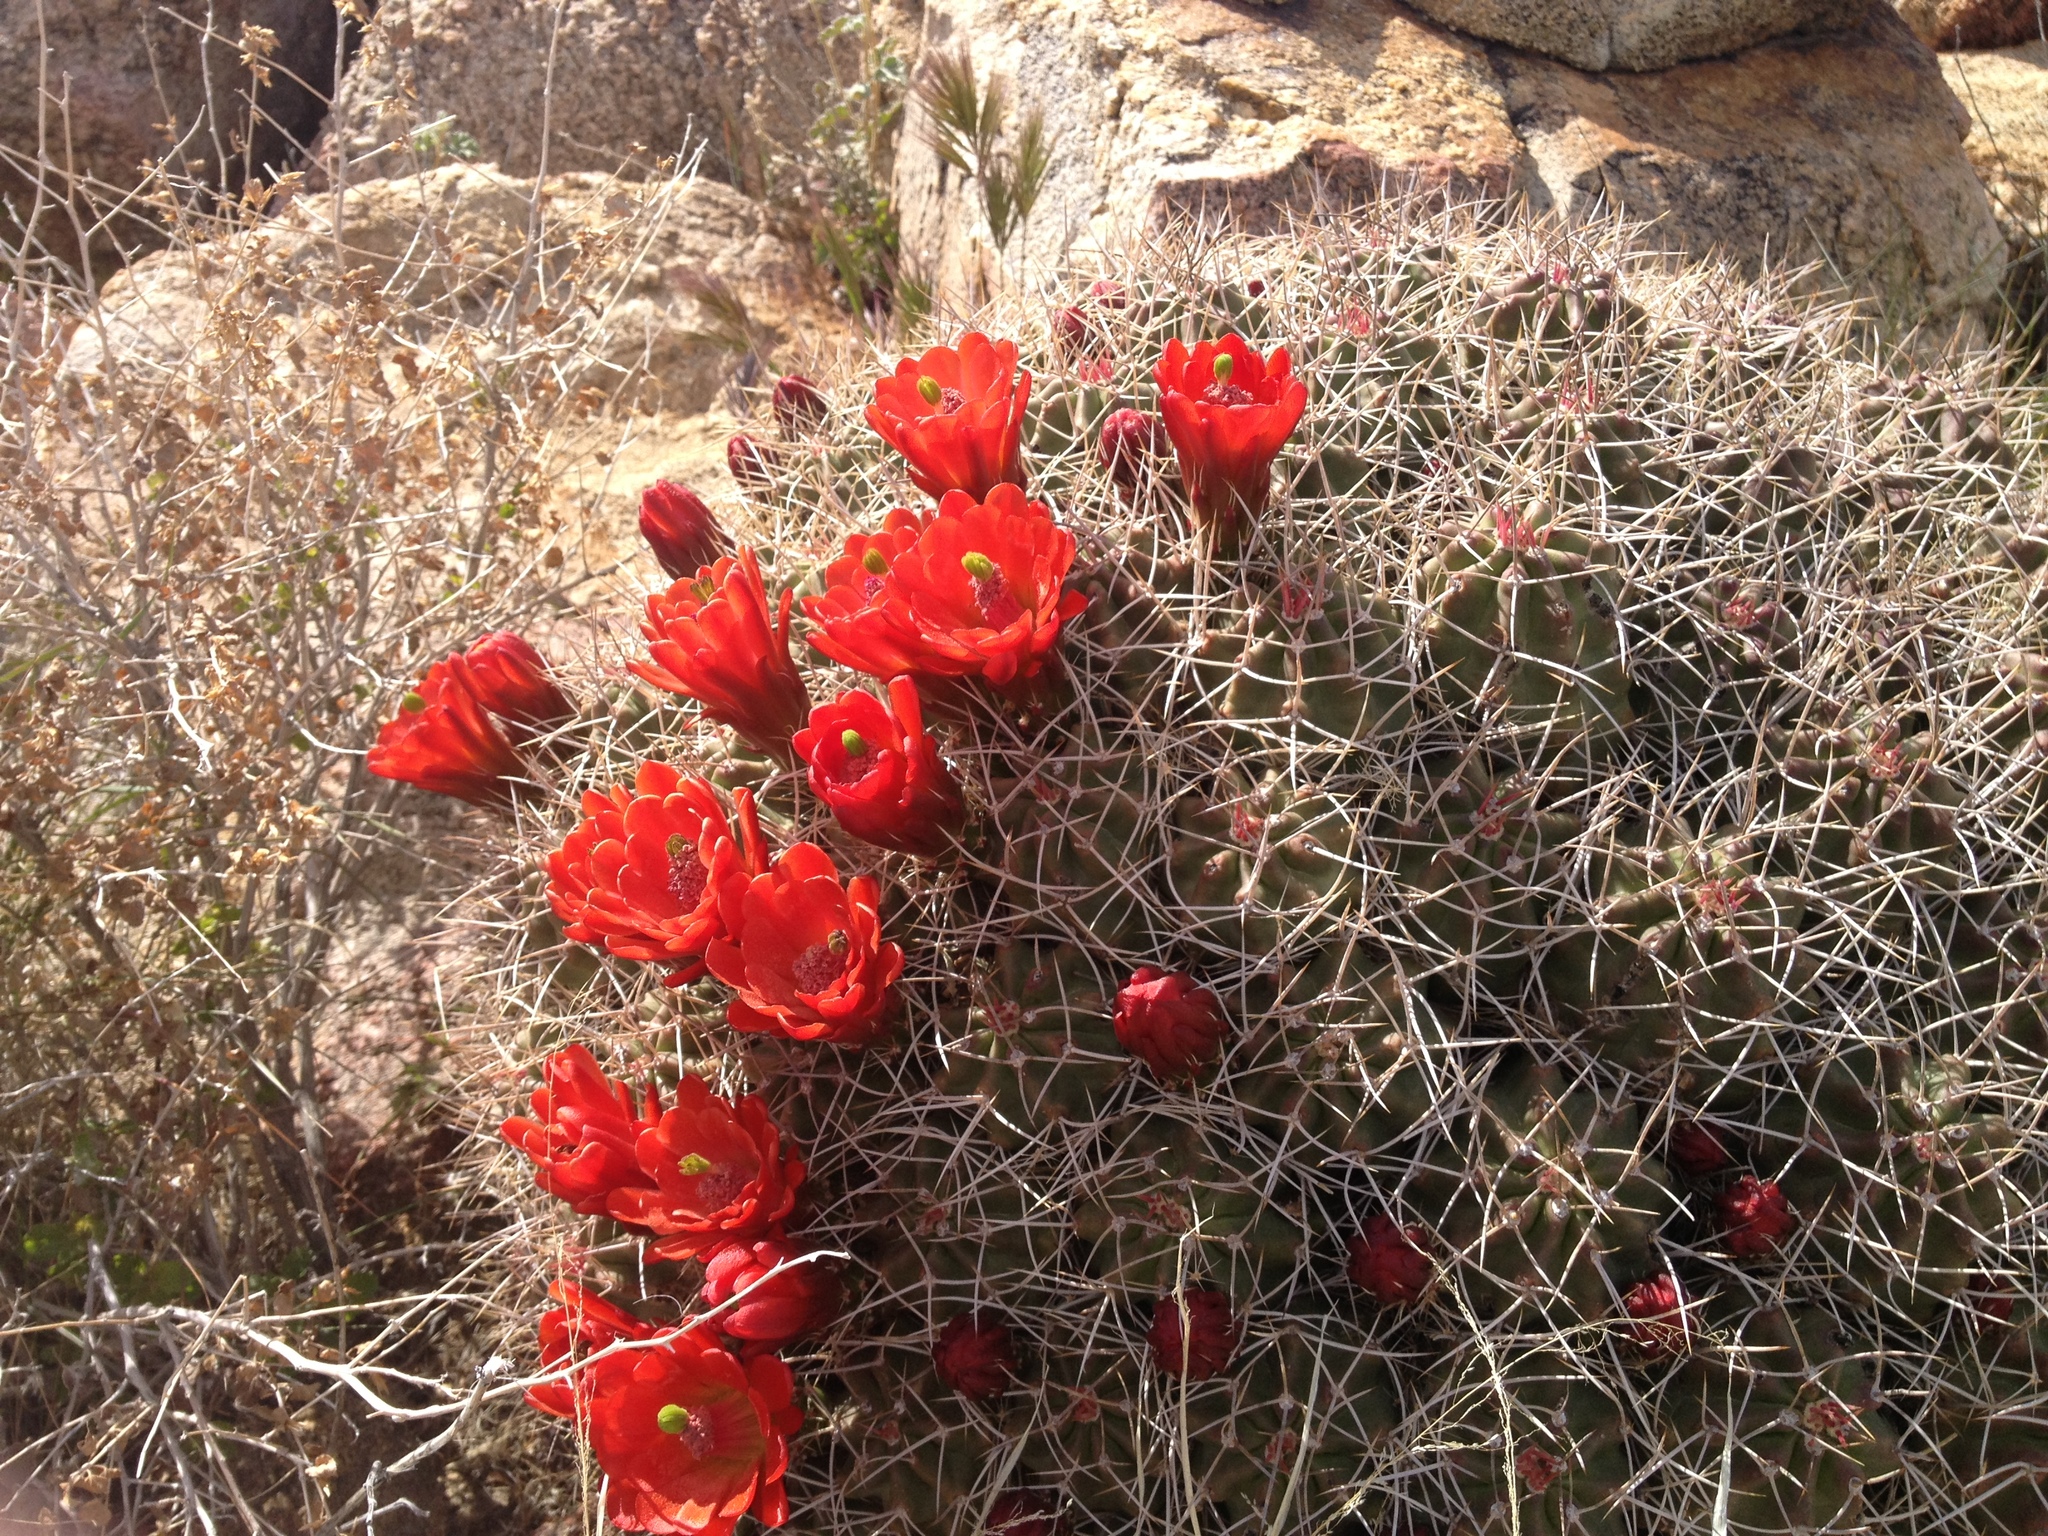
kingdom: Plantae
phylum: Tracheophyta
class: Magnoliopsida
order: Caryophyllales
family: Cactaceae
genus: Echinocereus
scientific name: Echinocereus triglochidiatus
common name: Claretcup hedgehog
